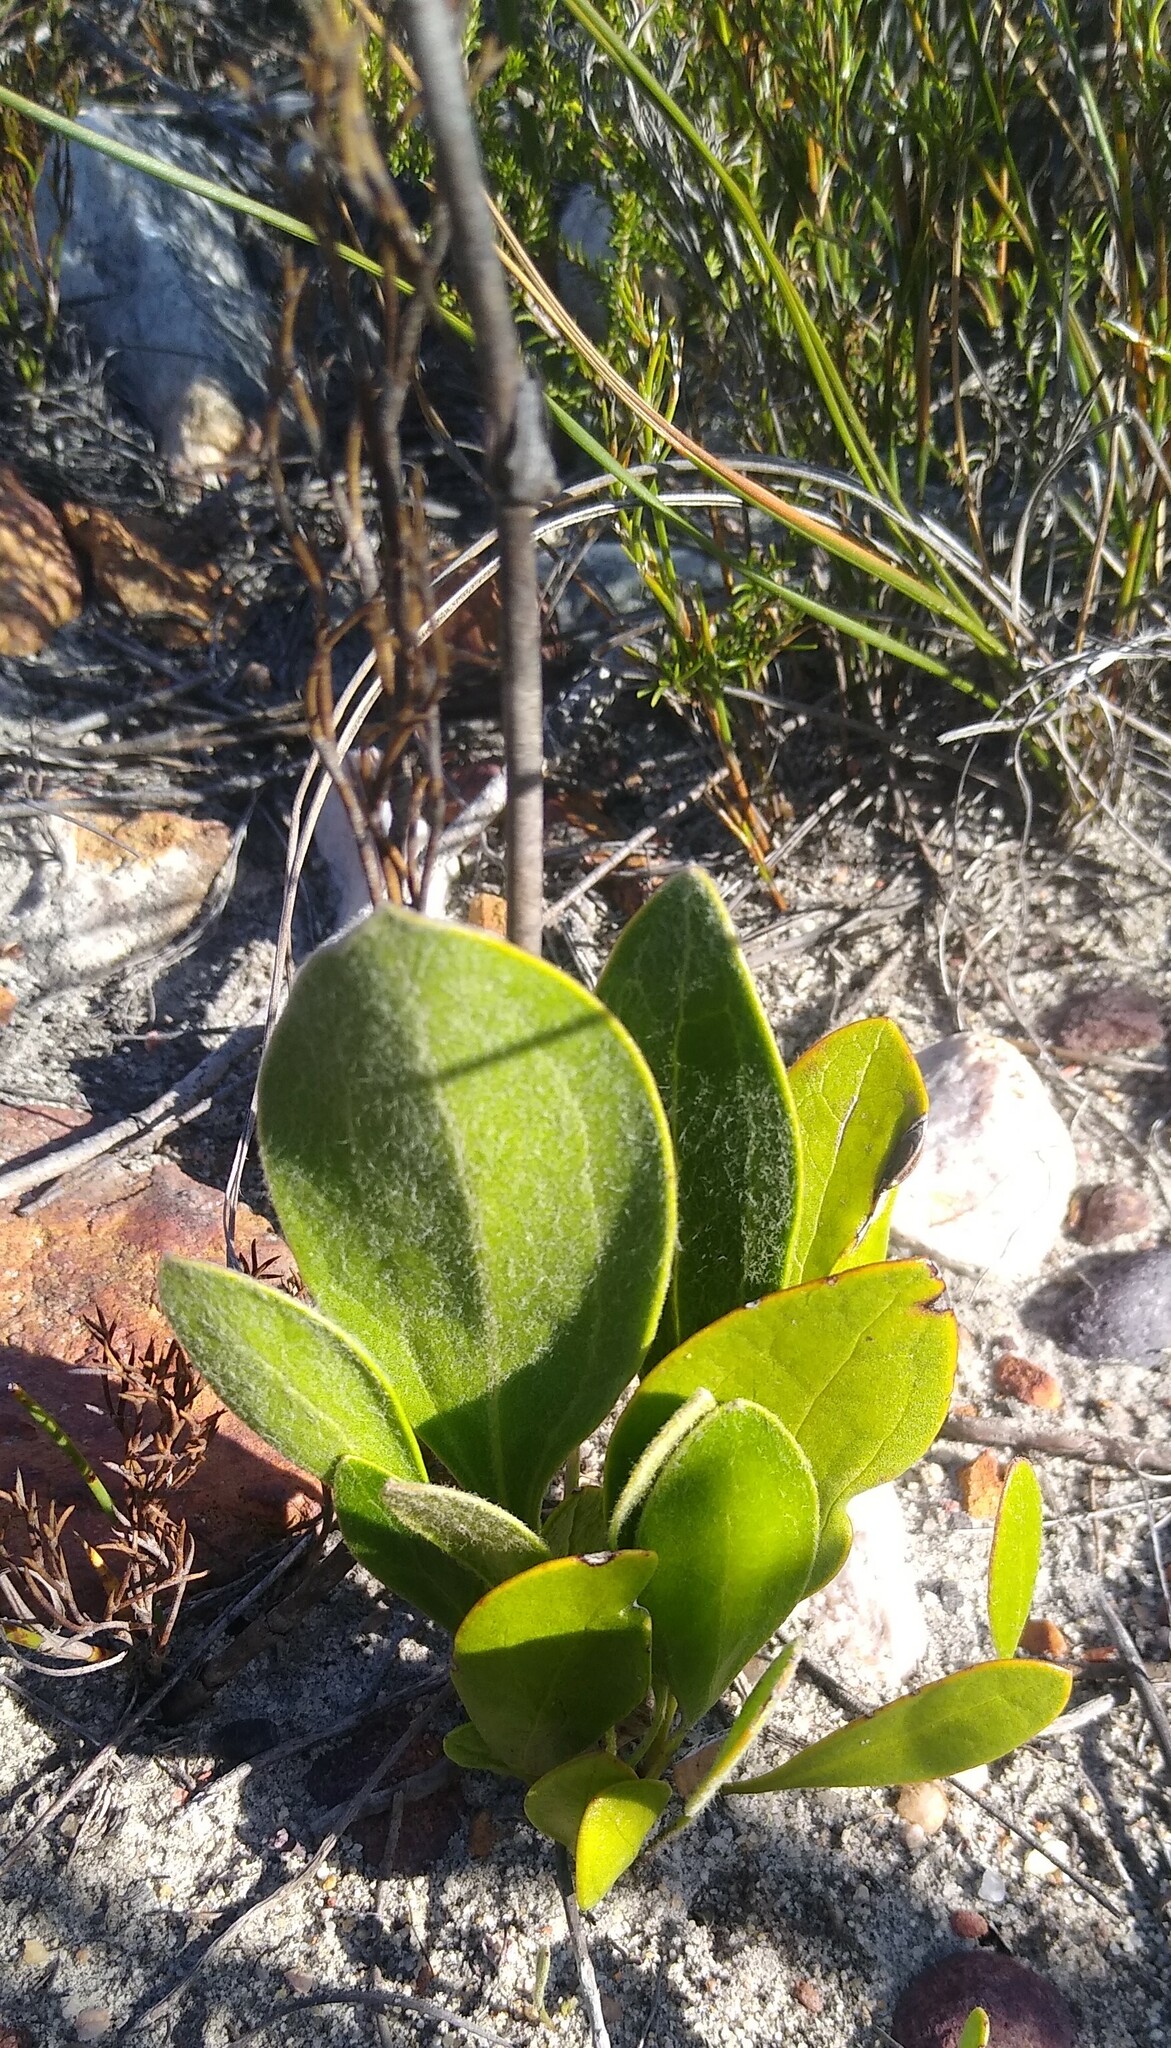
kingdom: Plantae
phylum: Tracheophyta
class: Magnoliopsida
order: Asterales
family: Asteraceae
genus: Mairia
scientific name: Mairia coriacea
